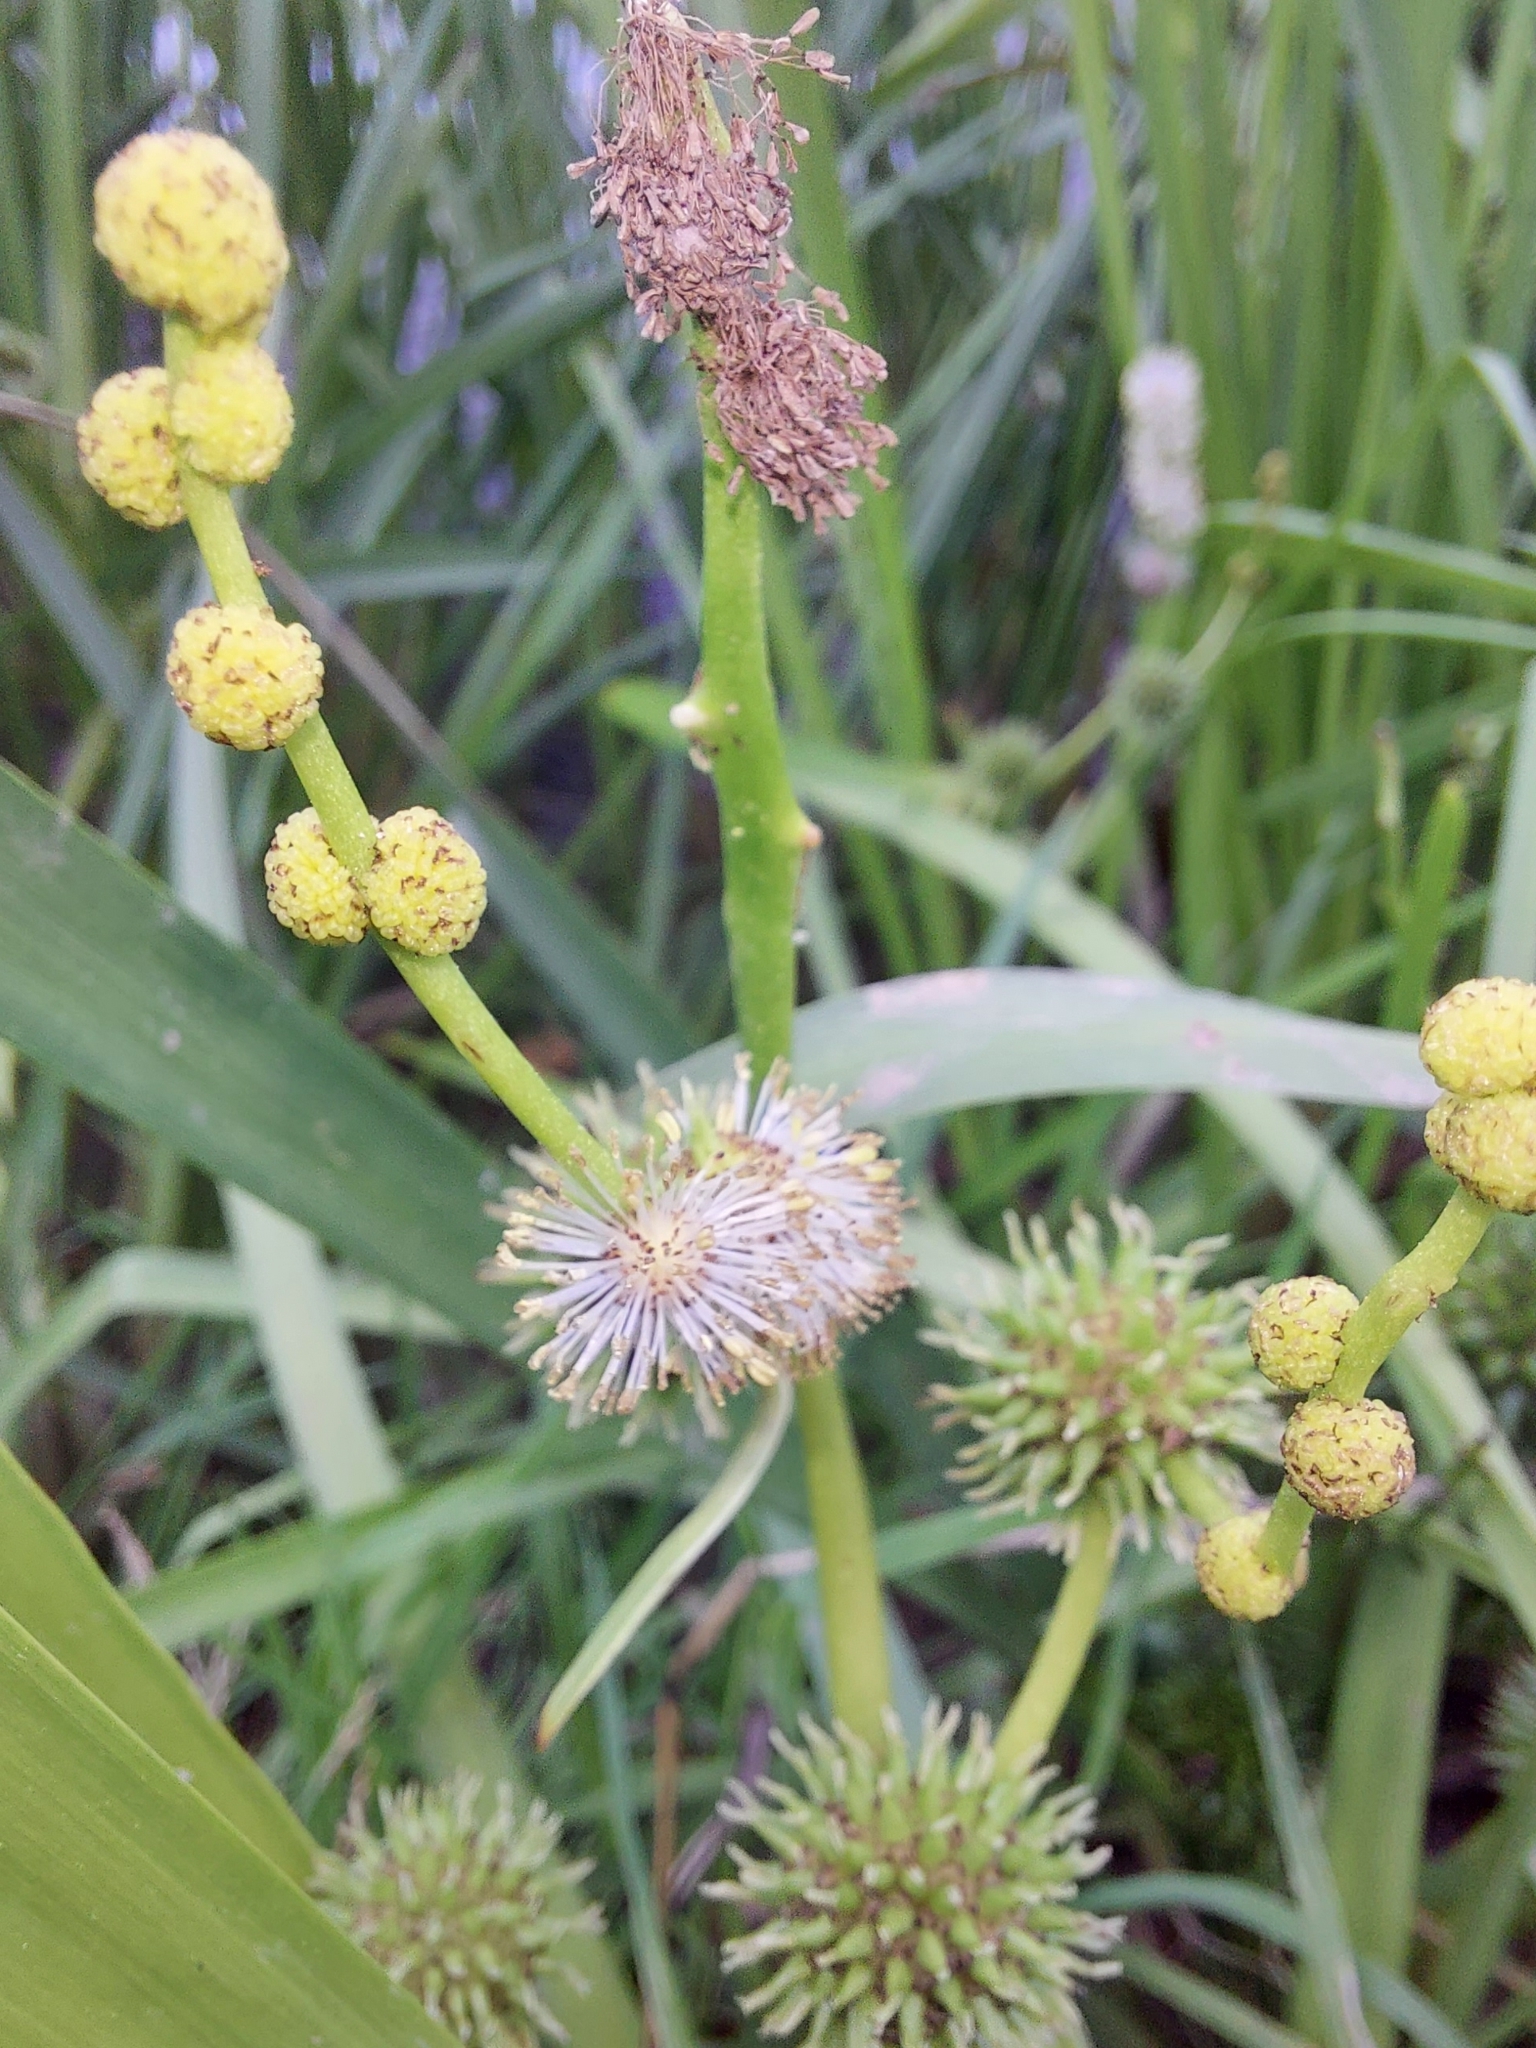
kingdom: Plantae
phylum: Tracheophyta
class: Liliopsida
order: Poales
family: Typhaceae
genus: Sparganium
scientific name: Sparganium erectum
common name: Branched bur-reed
